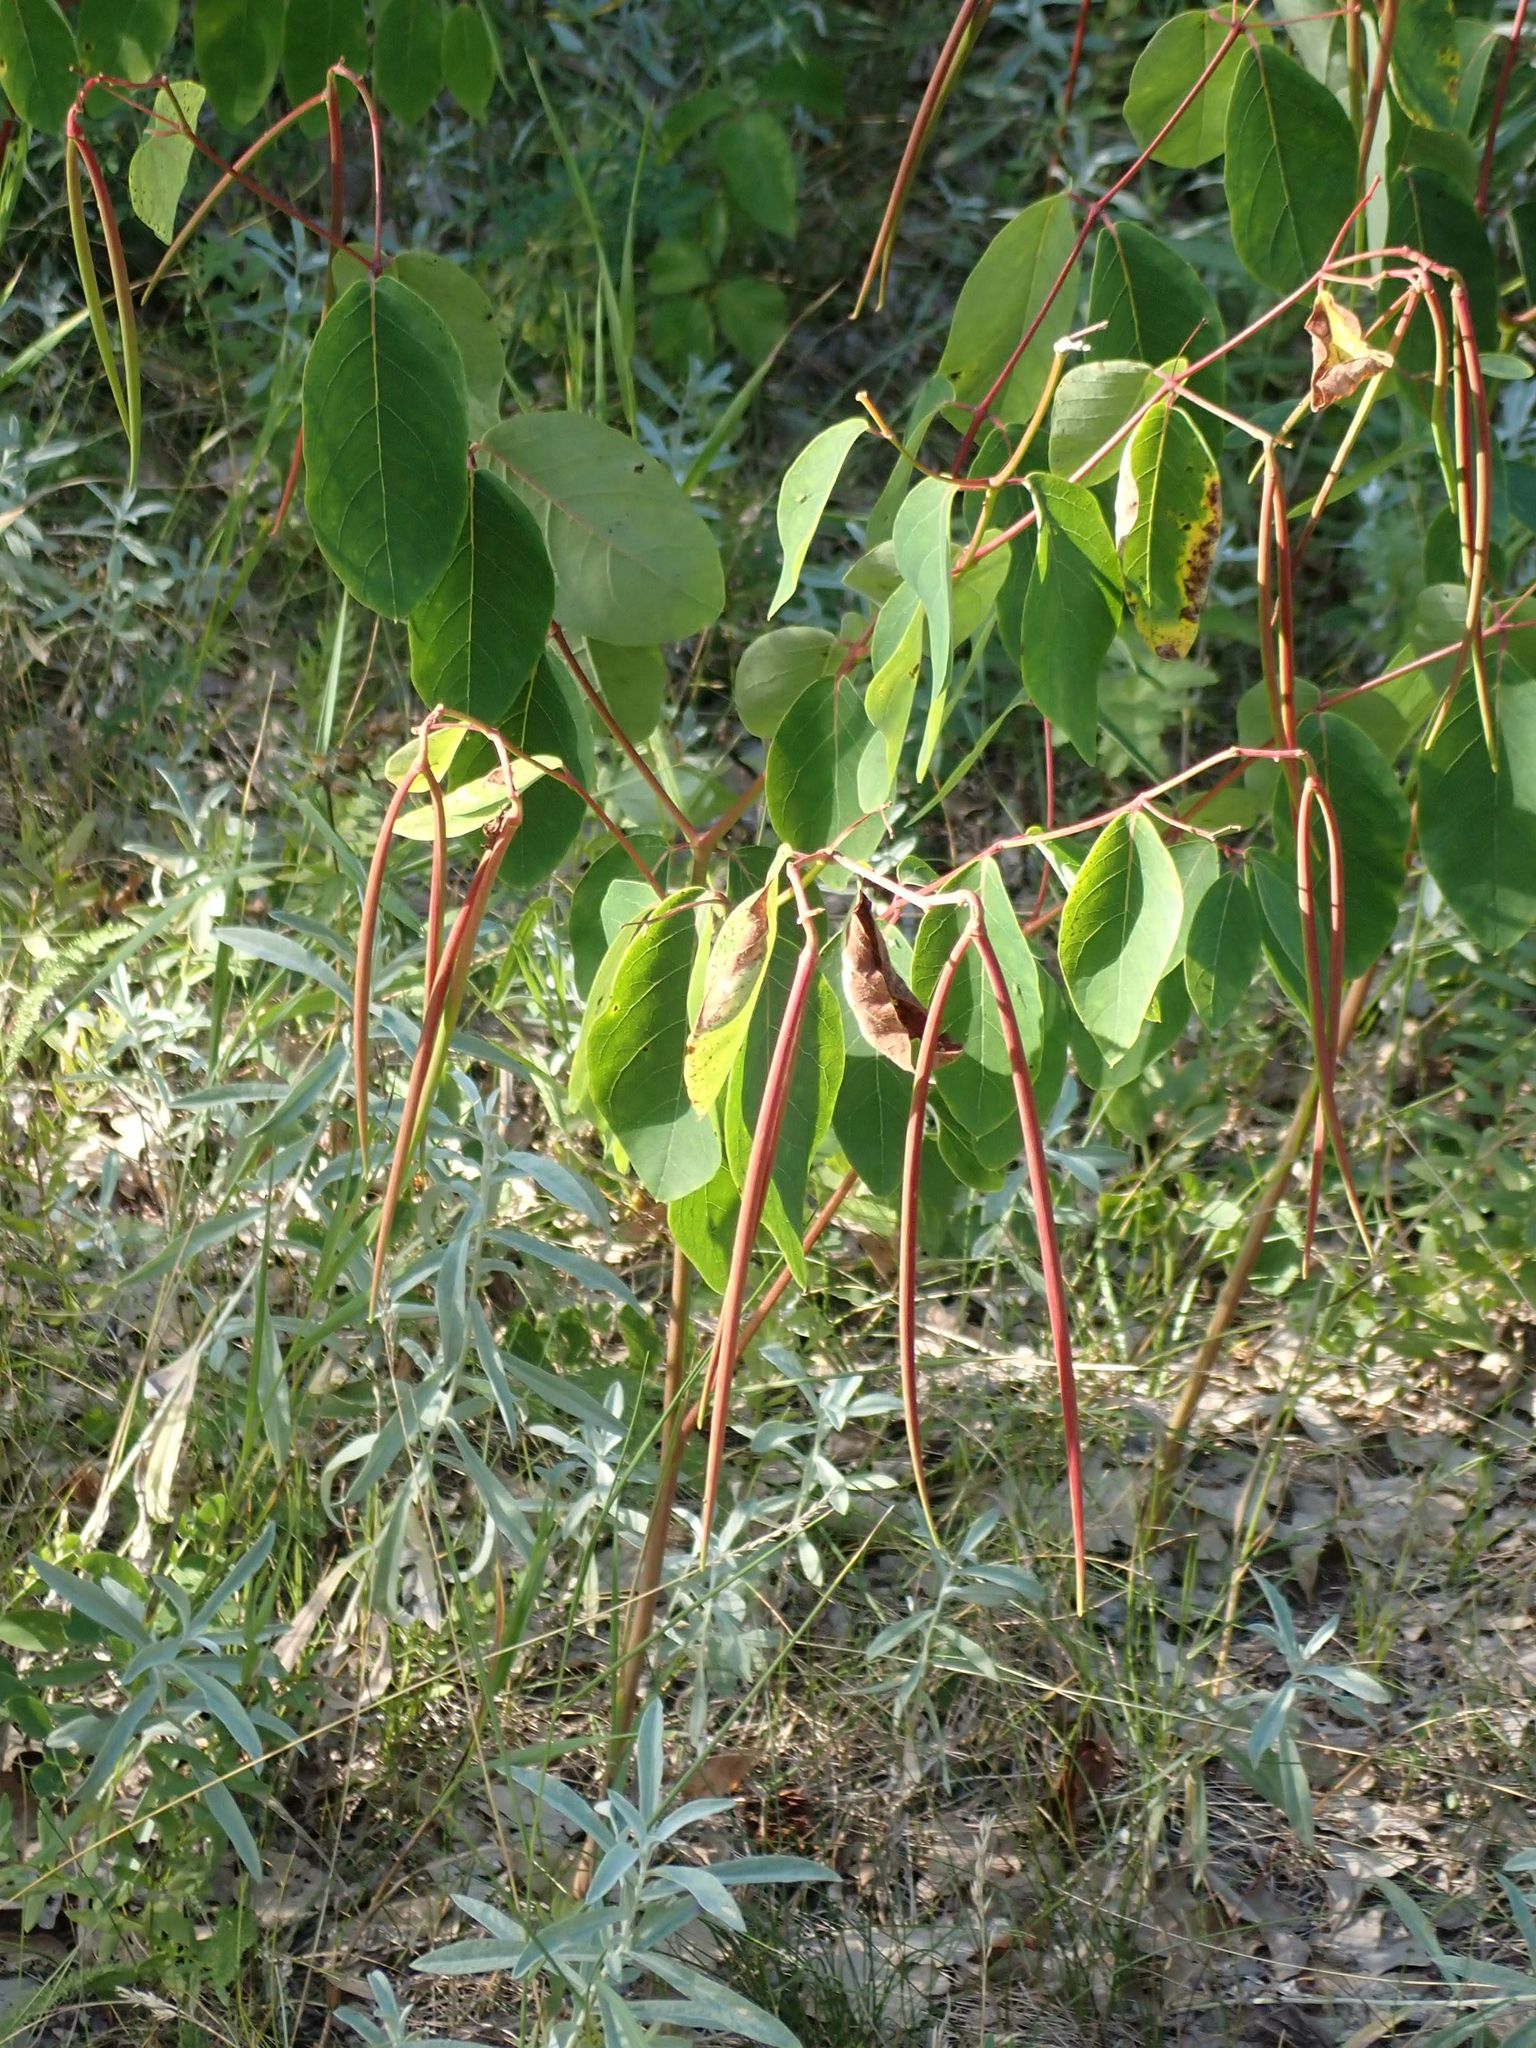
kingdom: Plantae
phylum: Tracheophyta
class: Magnoliopsida
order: Gentianales
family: Apocynaceae
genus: Apocynum
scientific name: Apocynum androsaemifolium
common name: Spreading dogbane
